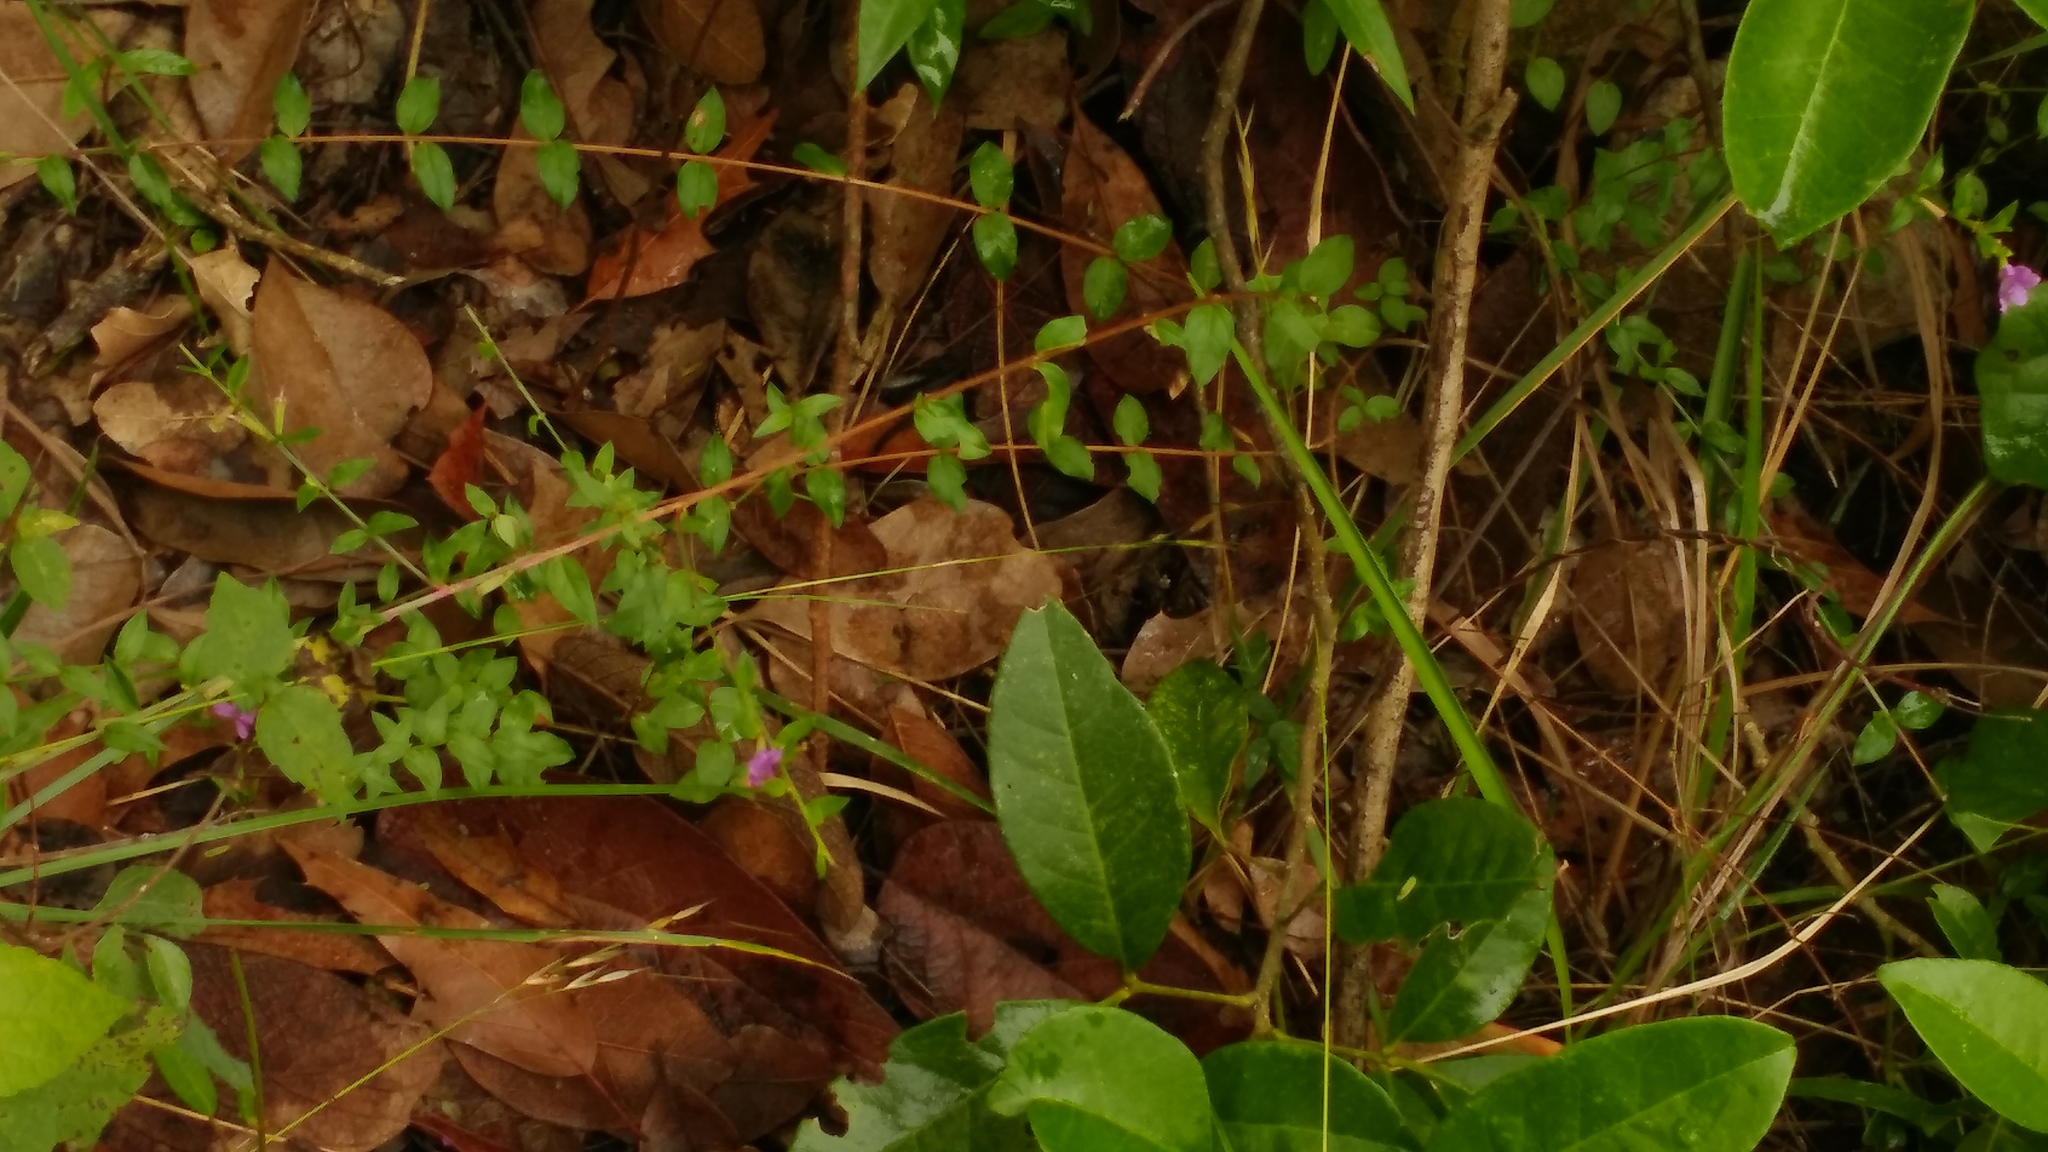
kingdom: Plantae
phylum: Tracheophyta
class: Magnoliopsida
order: Myrtales
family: Lythraceae
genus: Lythrum
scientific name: Lythrum alatum
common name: Winged loosestrife
